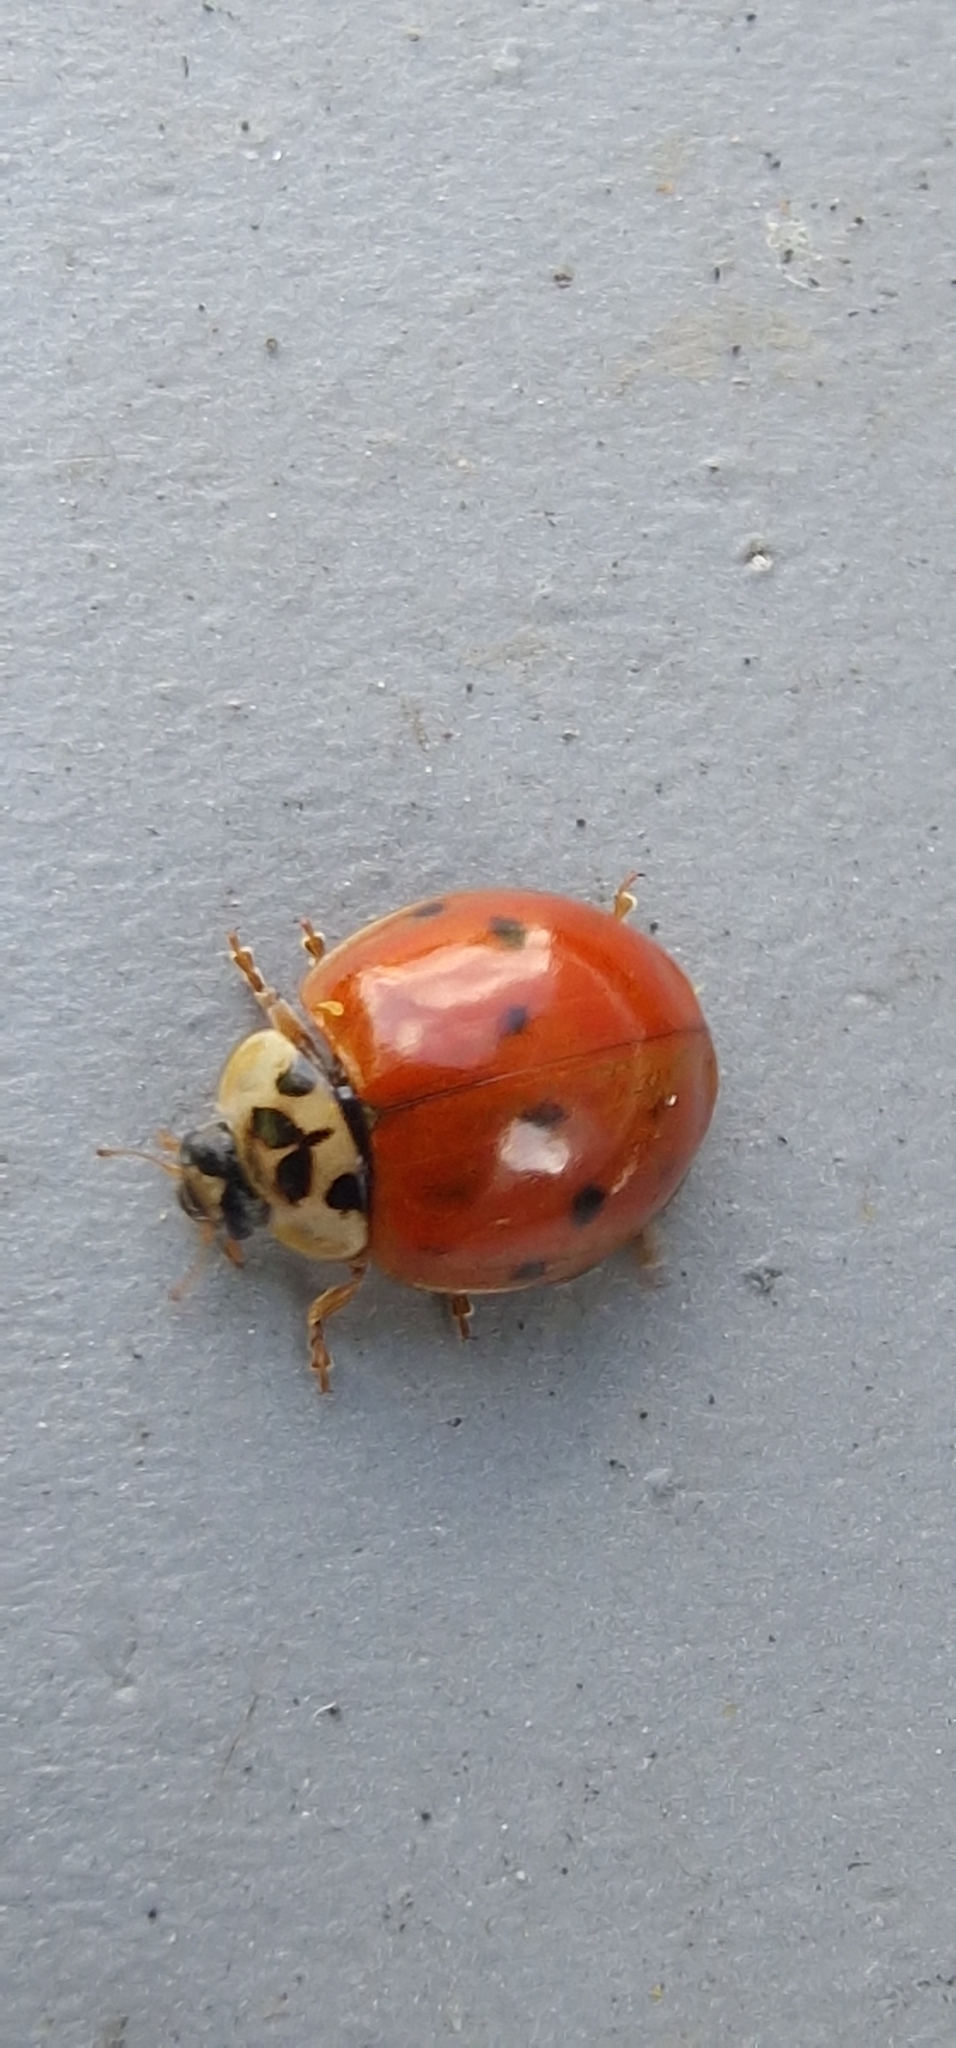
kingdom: Animalia
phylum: Arthropoda
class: Insecta
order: Coleoptera
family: Coccinellidae
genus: Harmonia
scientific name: Harmonia axyridis
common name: Harlequin ladybird
